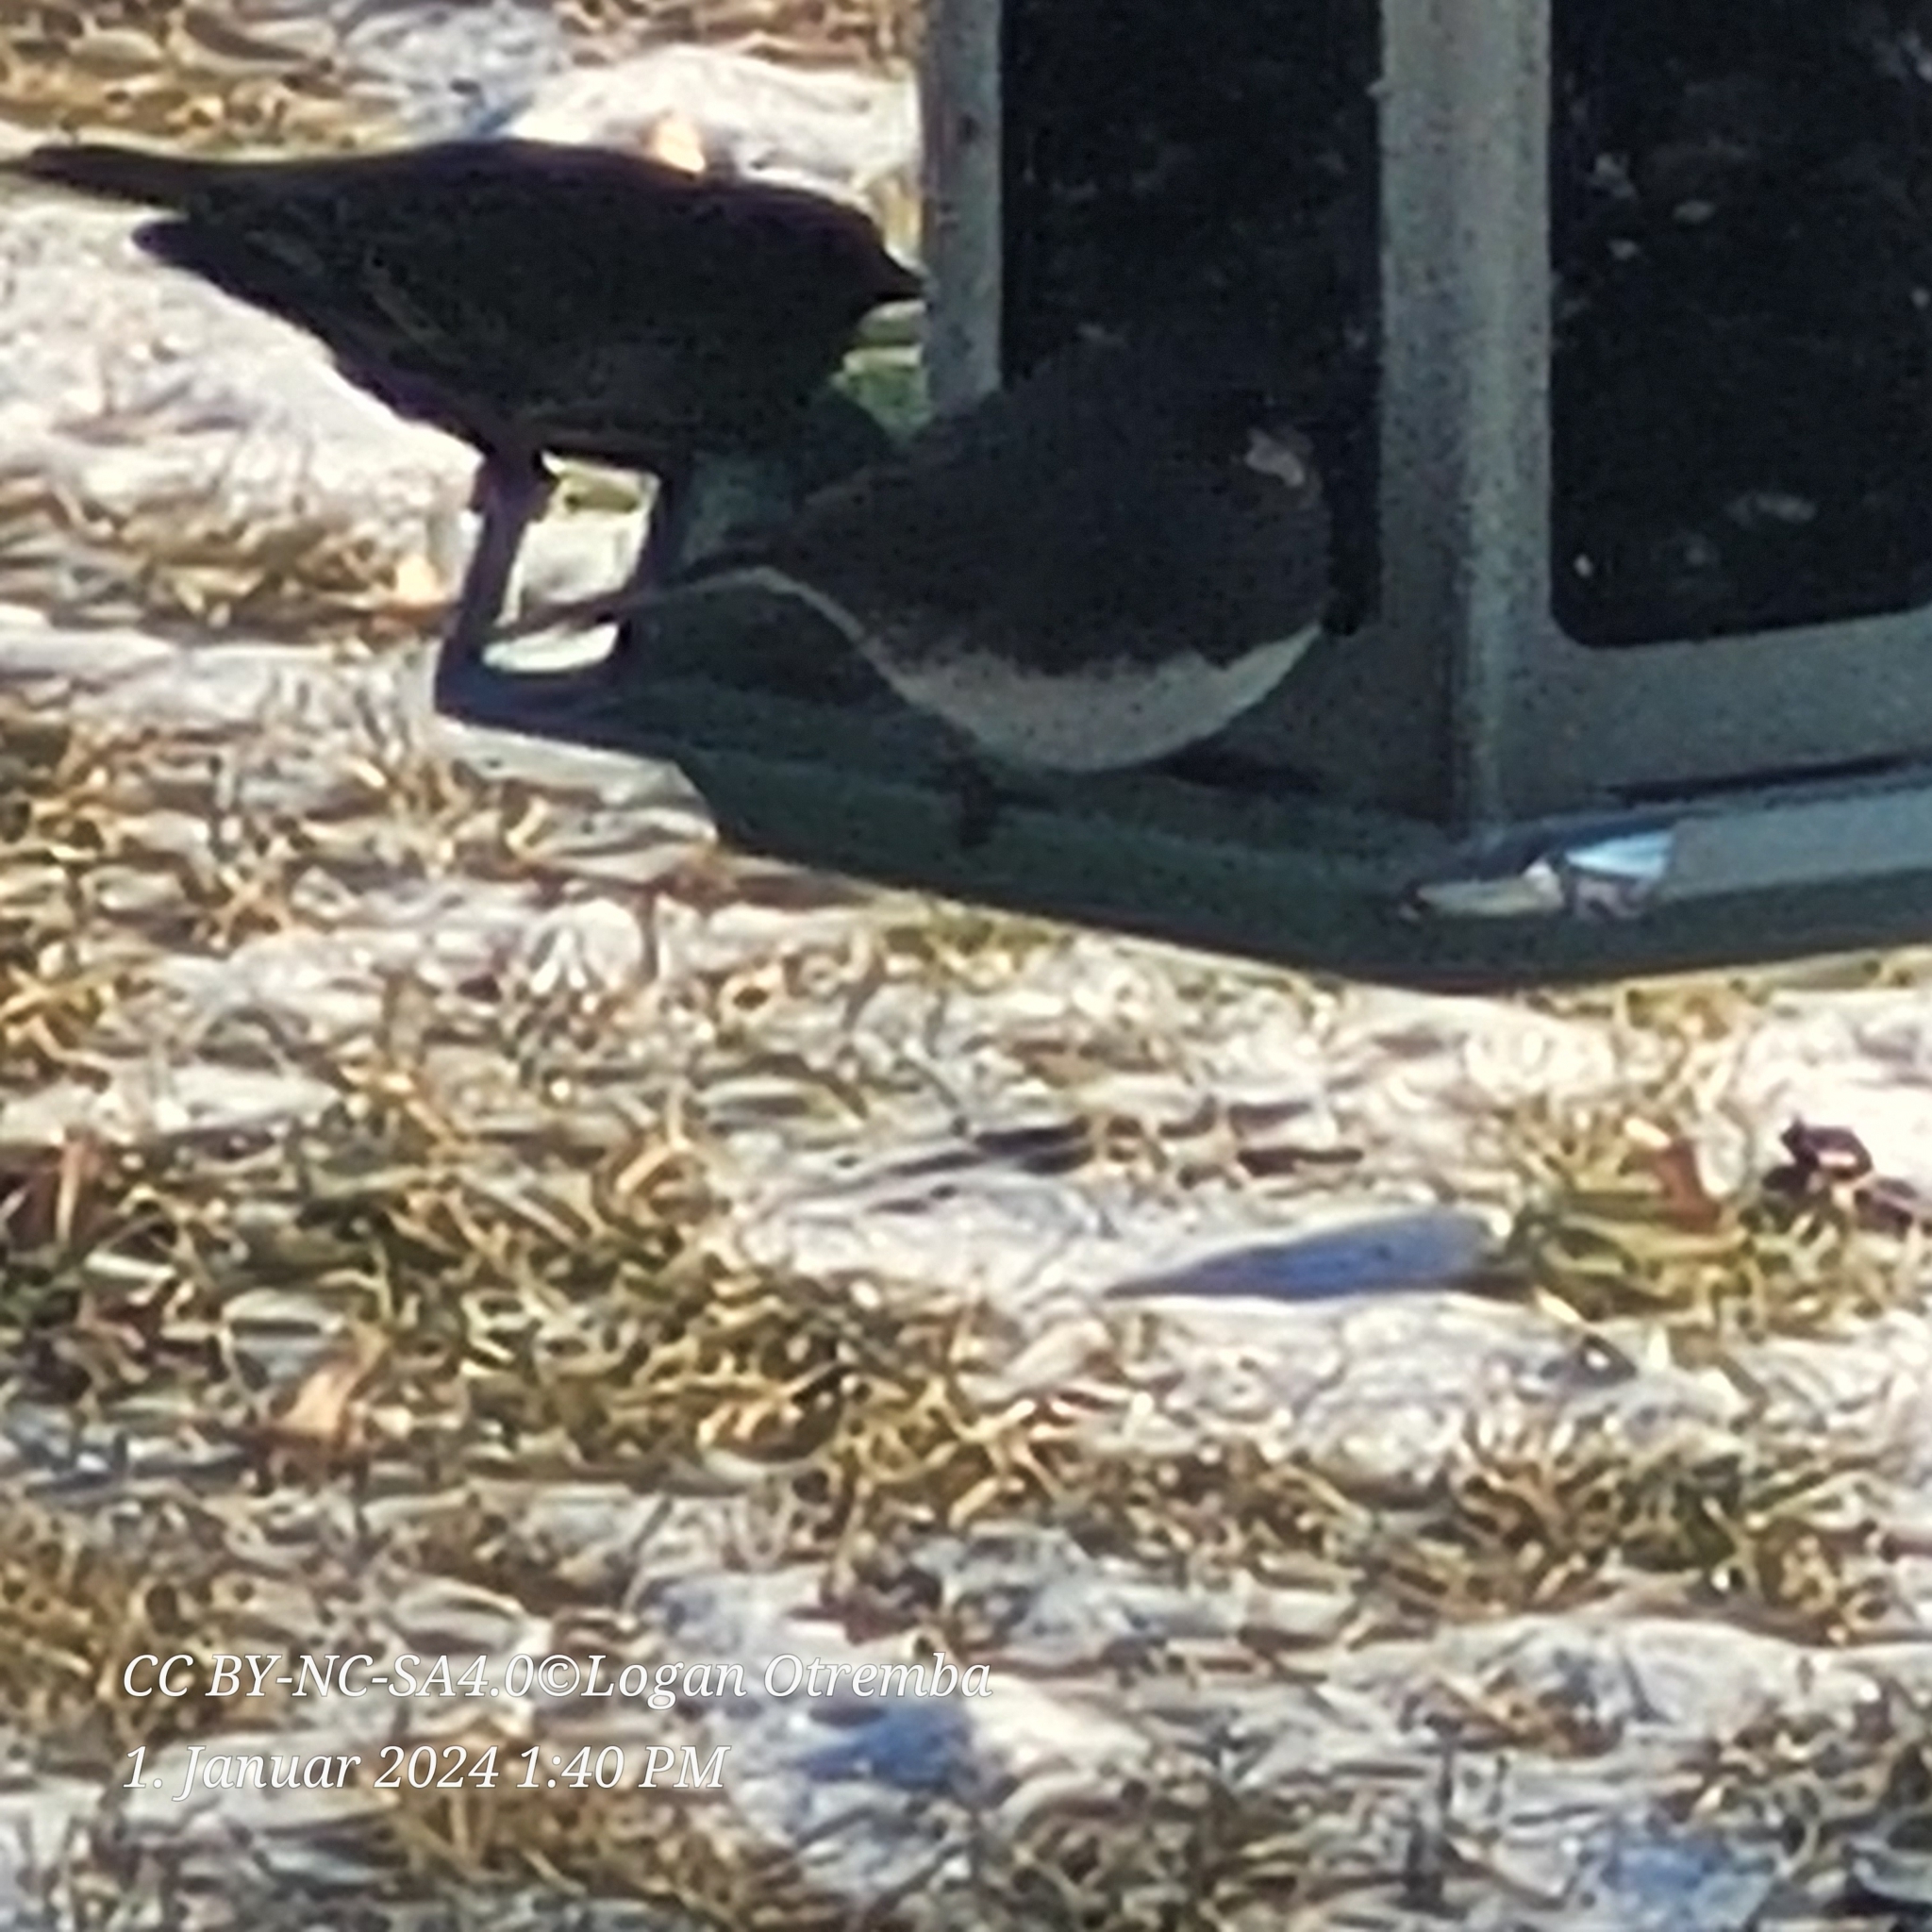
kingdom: Animalia
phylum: Chordata
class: Aves
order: Passeriformes
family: Passerellidae
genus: Junco
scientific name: Junco hyemalis
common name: Dark-eyed junco
